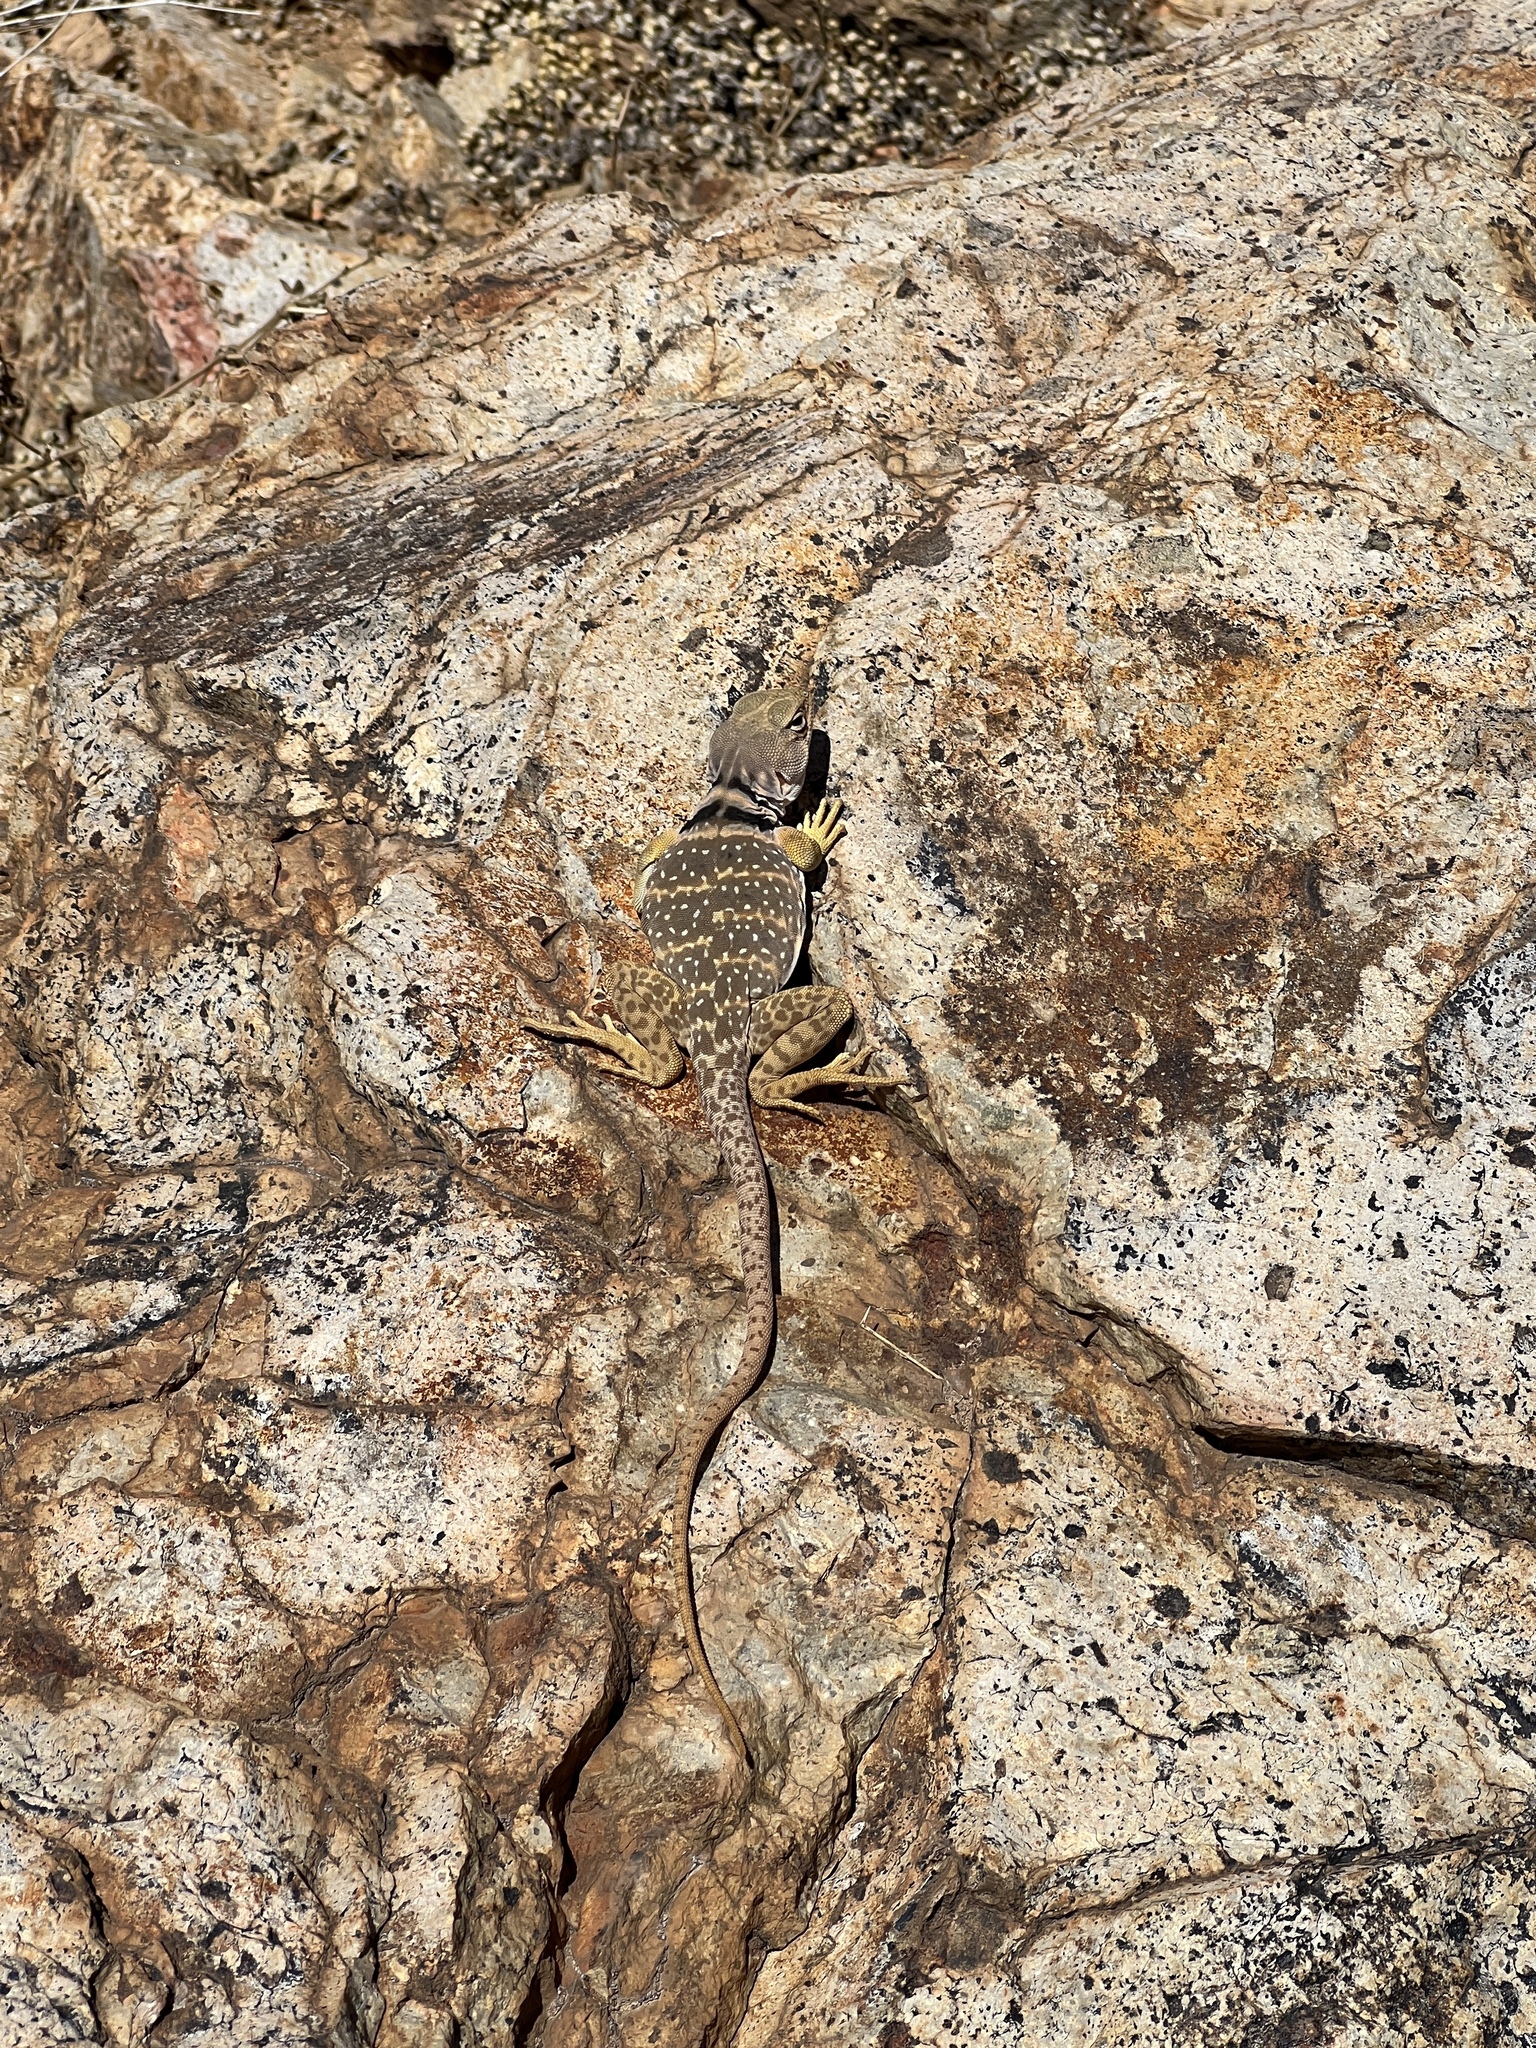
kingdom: Animalia
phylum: Chordata
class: Squamata
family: Crotaphytidae
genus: Crotaphytus
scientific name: Crotaphytus nebrius
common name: Sonoran collared lizard
